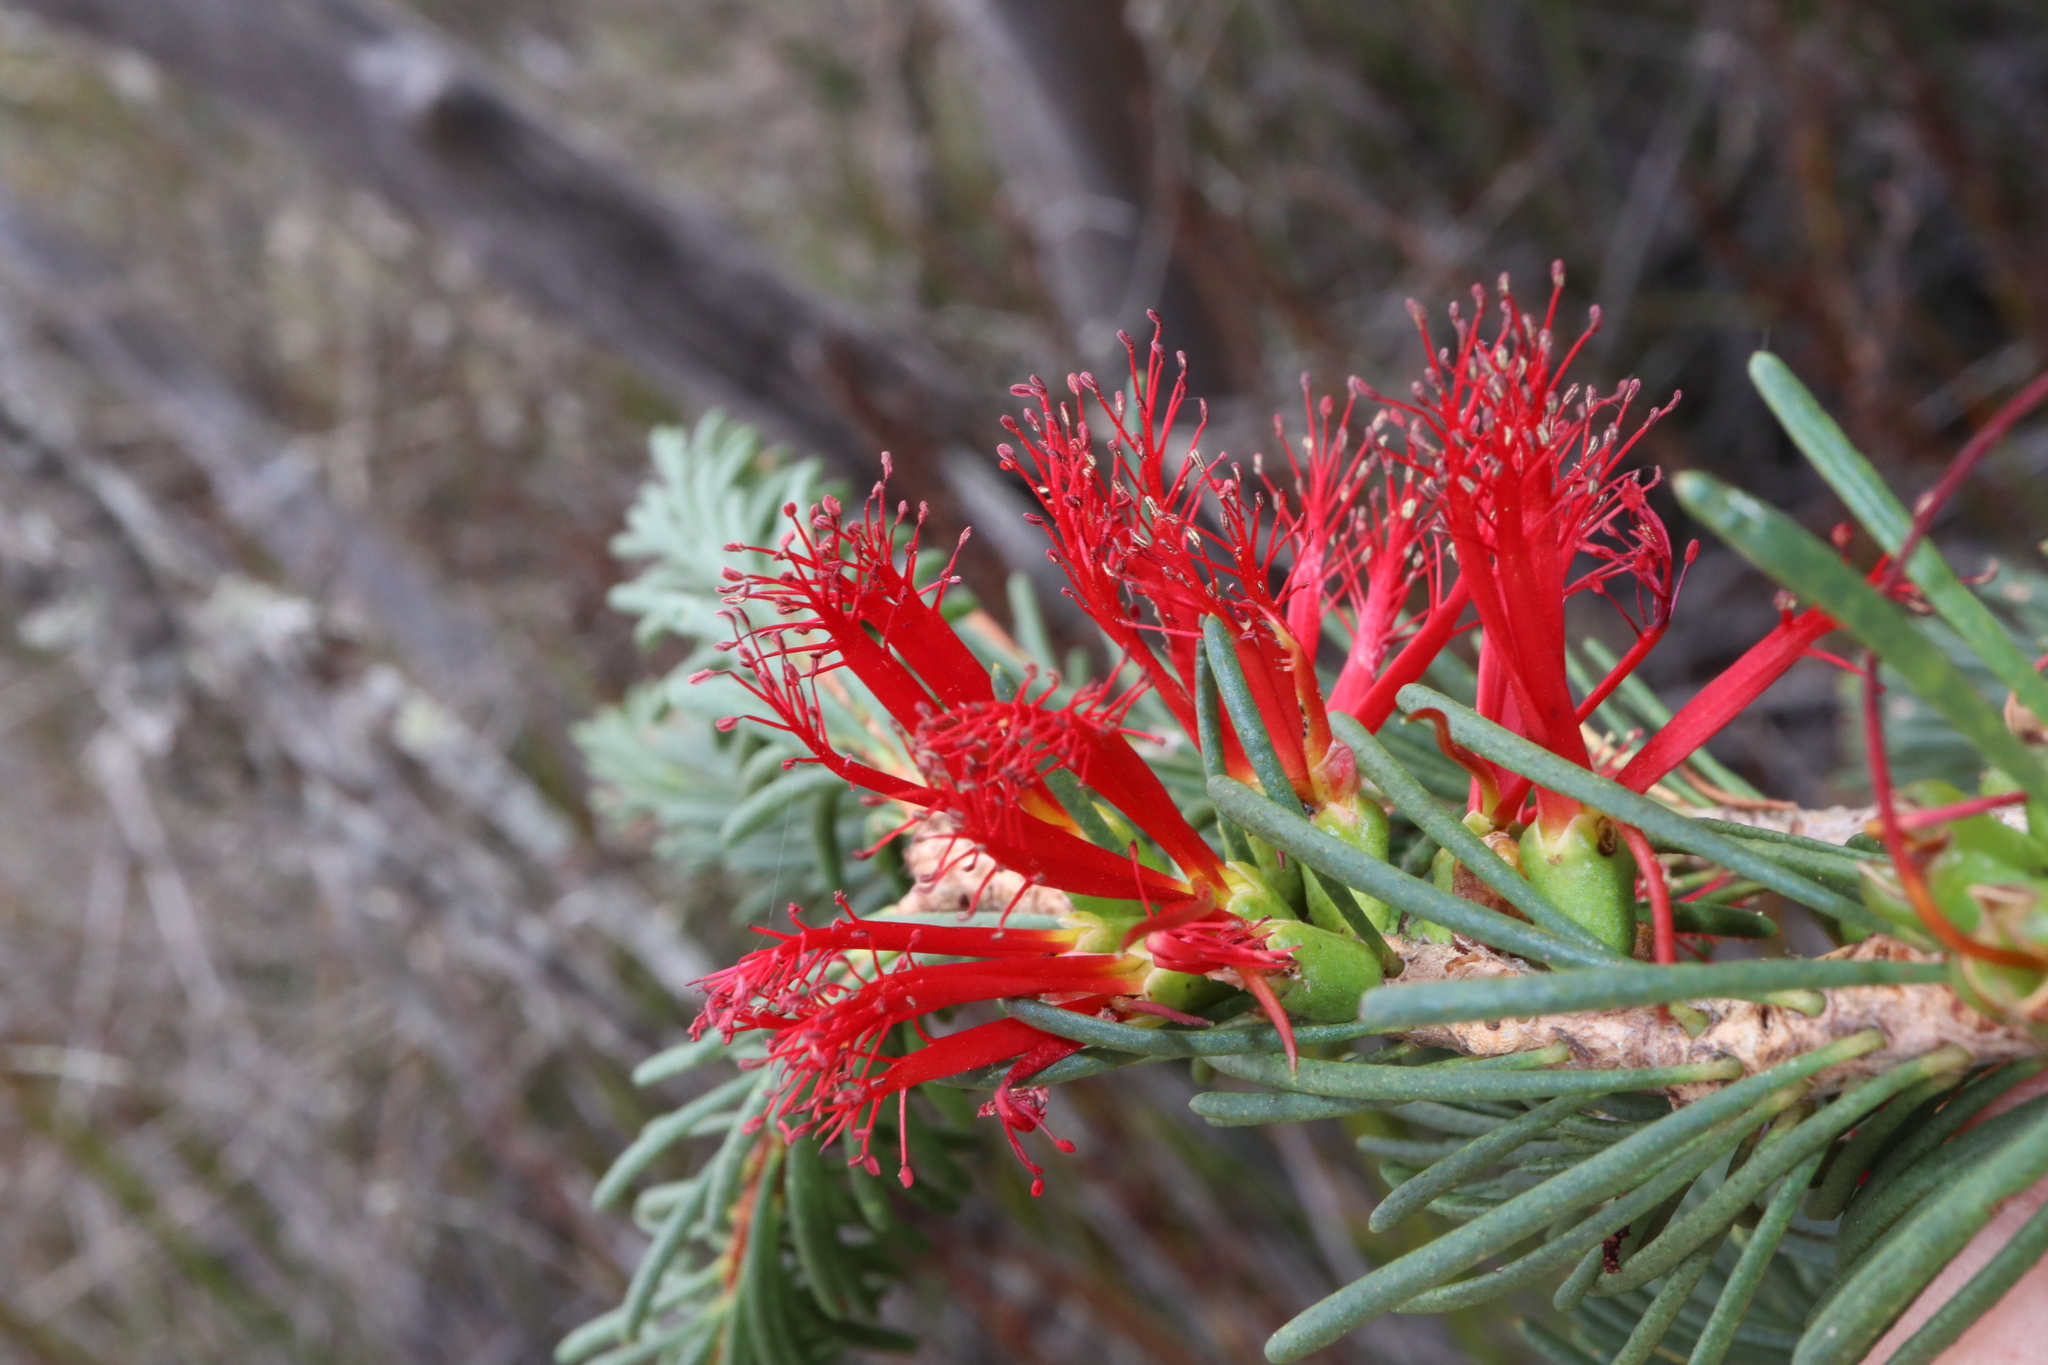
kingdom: Plantae
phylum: Tracheophyta
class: Magnoliopsida
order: Myrtales
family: Myrtaceae
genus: Melaleuca
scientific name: Melaleuca quadrifida
